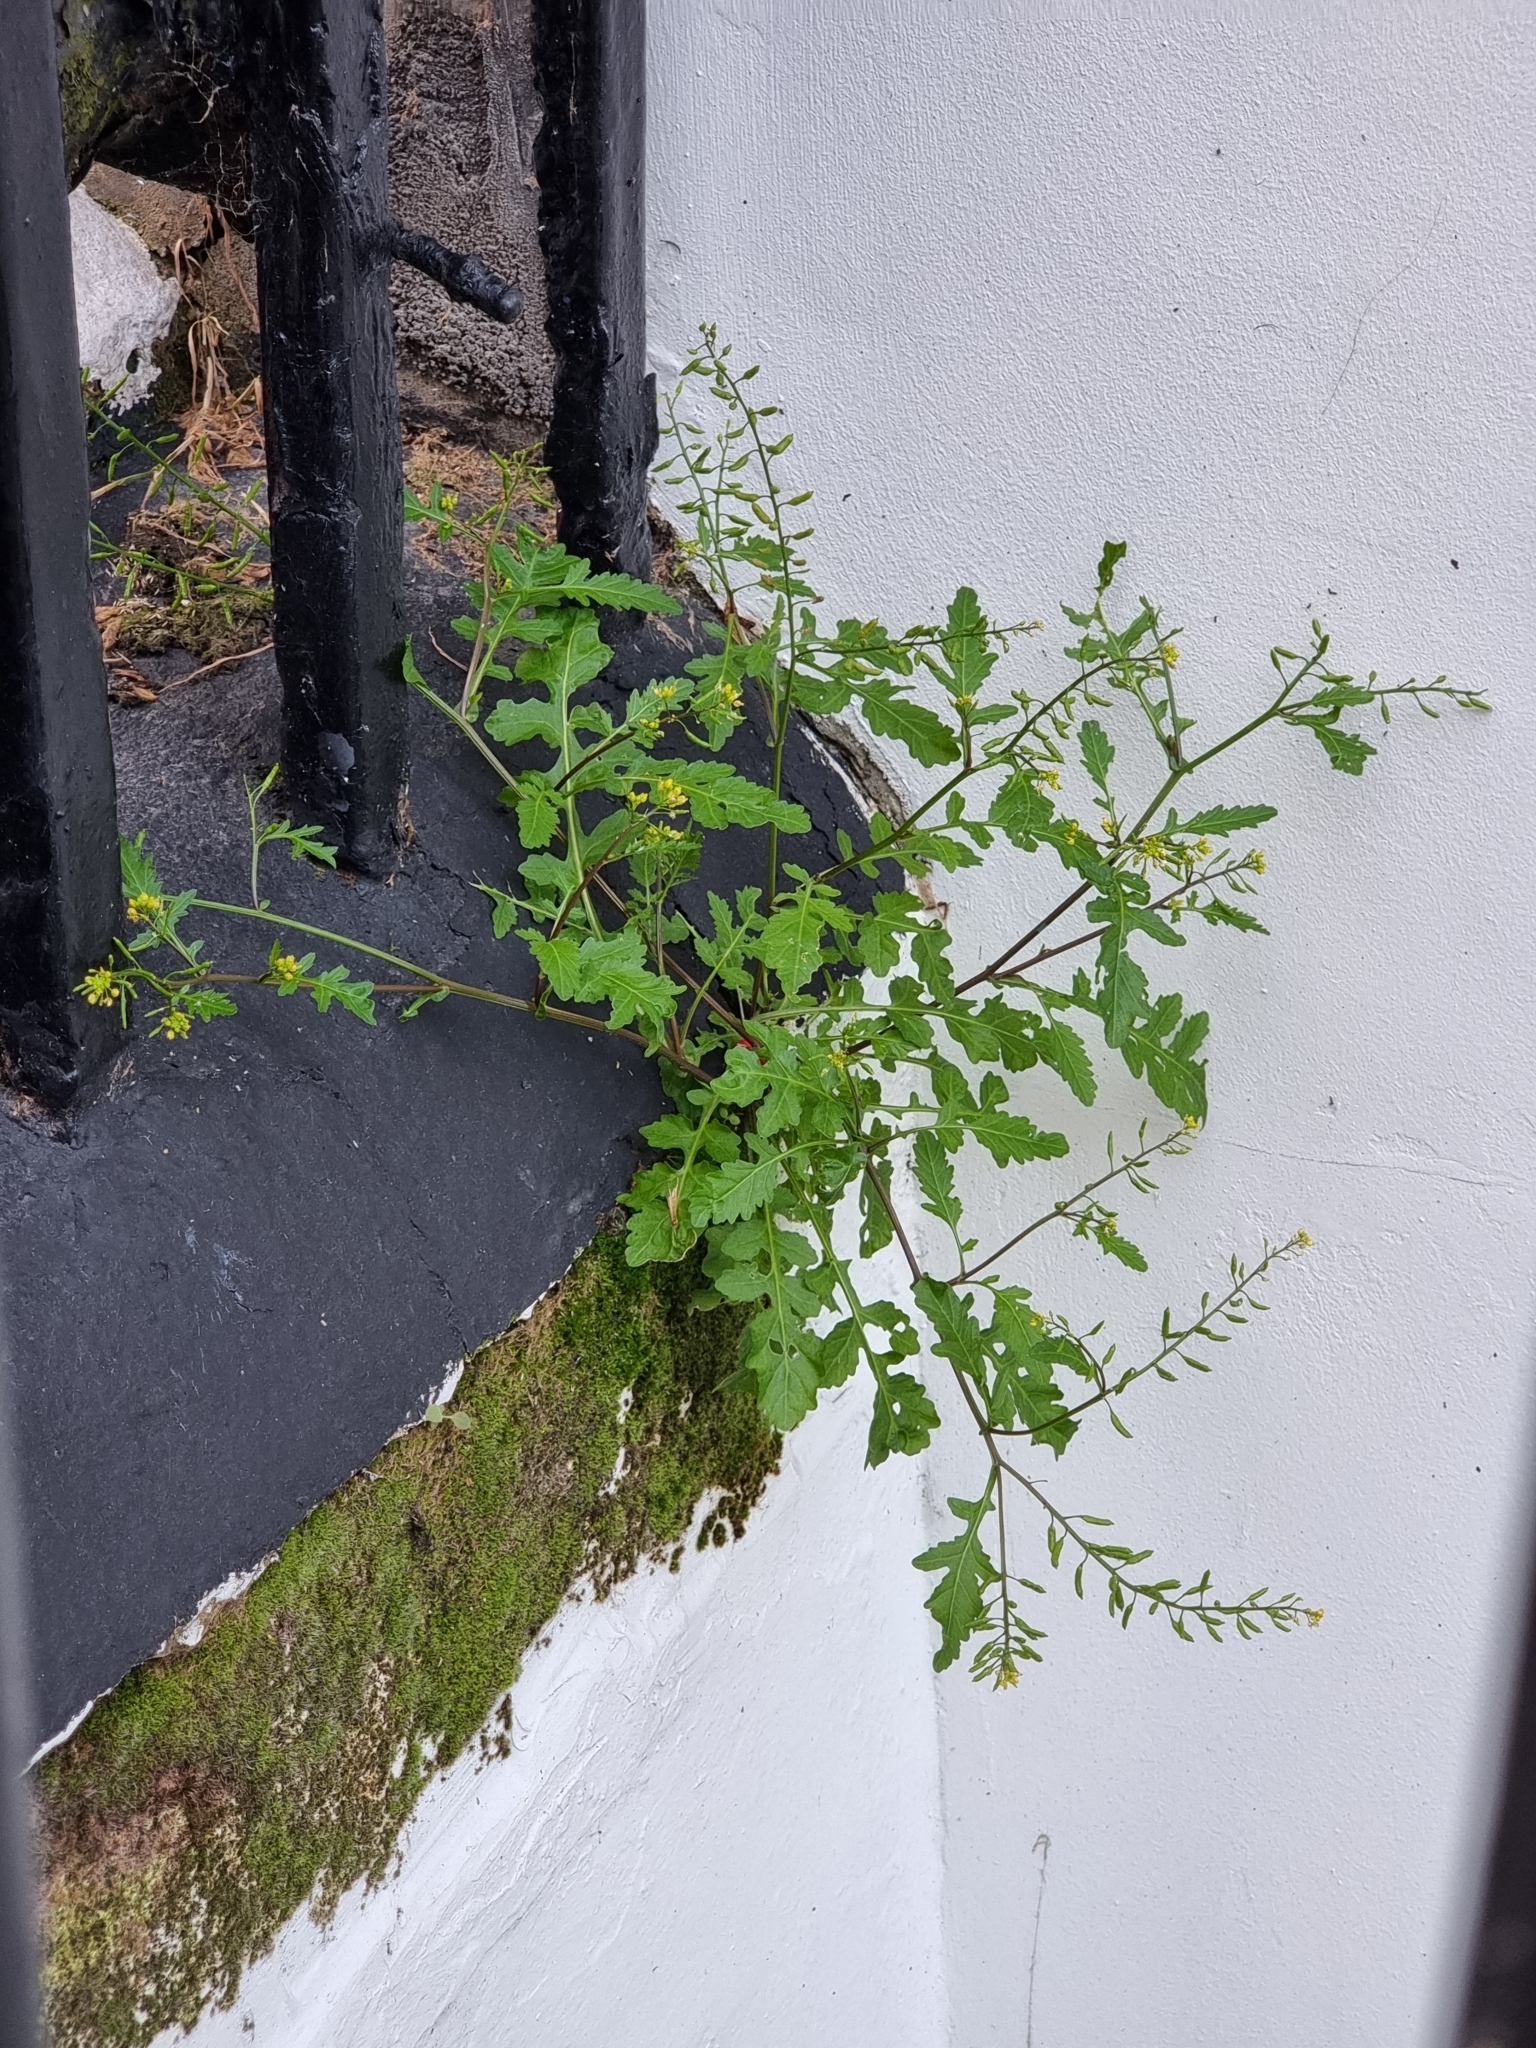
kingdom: Plantae
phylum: Tracheophyta
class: Magnoliopsida
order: Brassicales
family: Brassicaceae
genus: Rorippa
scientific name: Rorippa palustris
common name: Marsh yellow-cress
